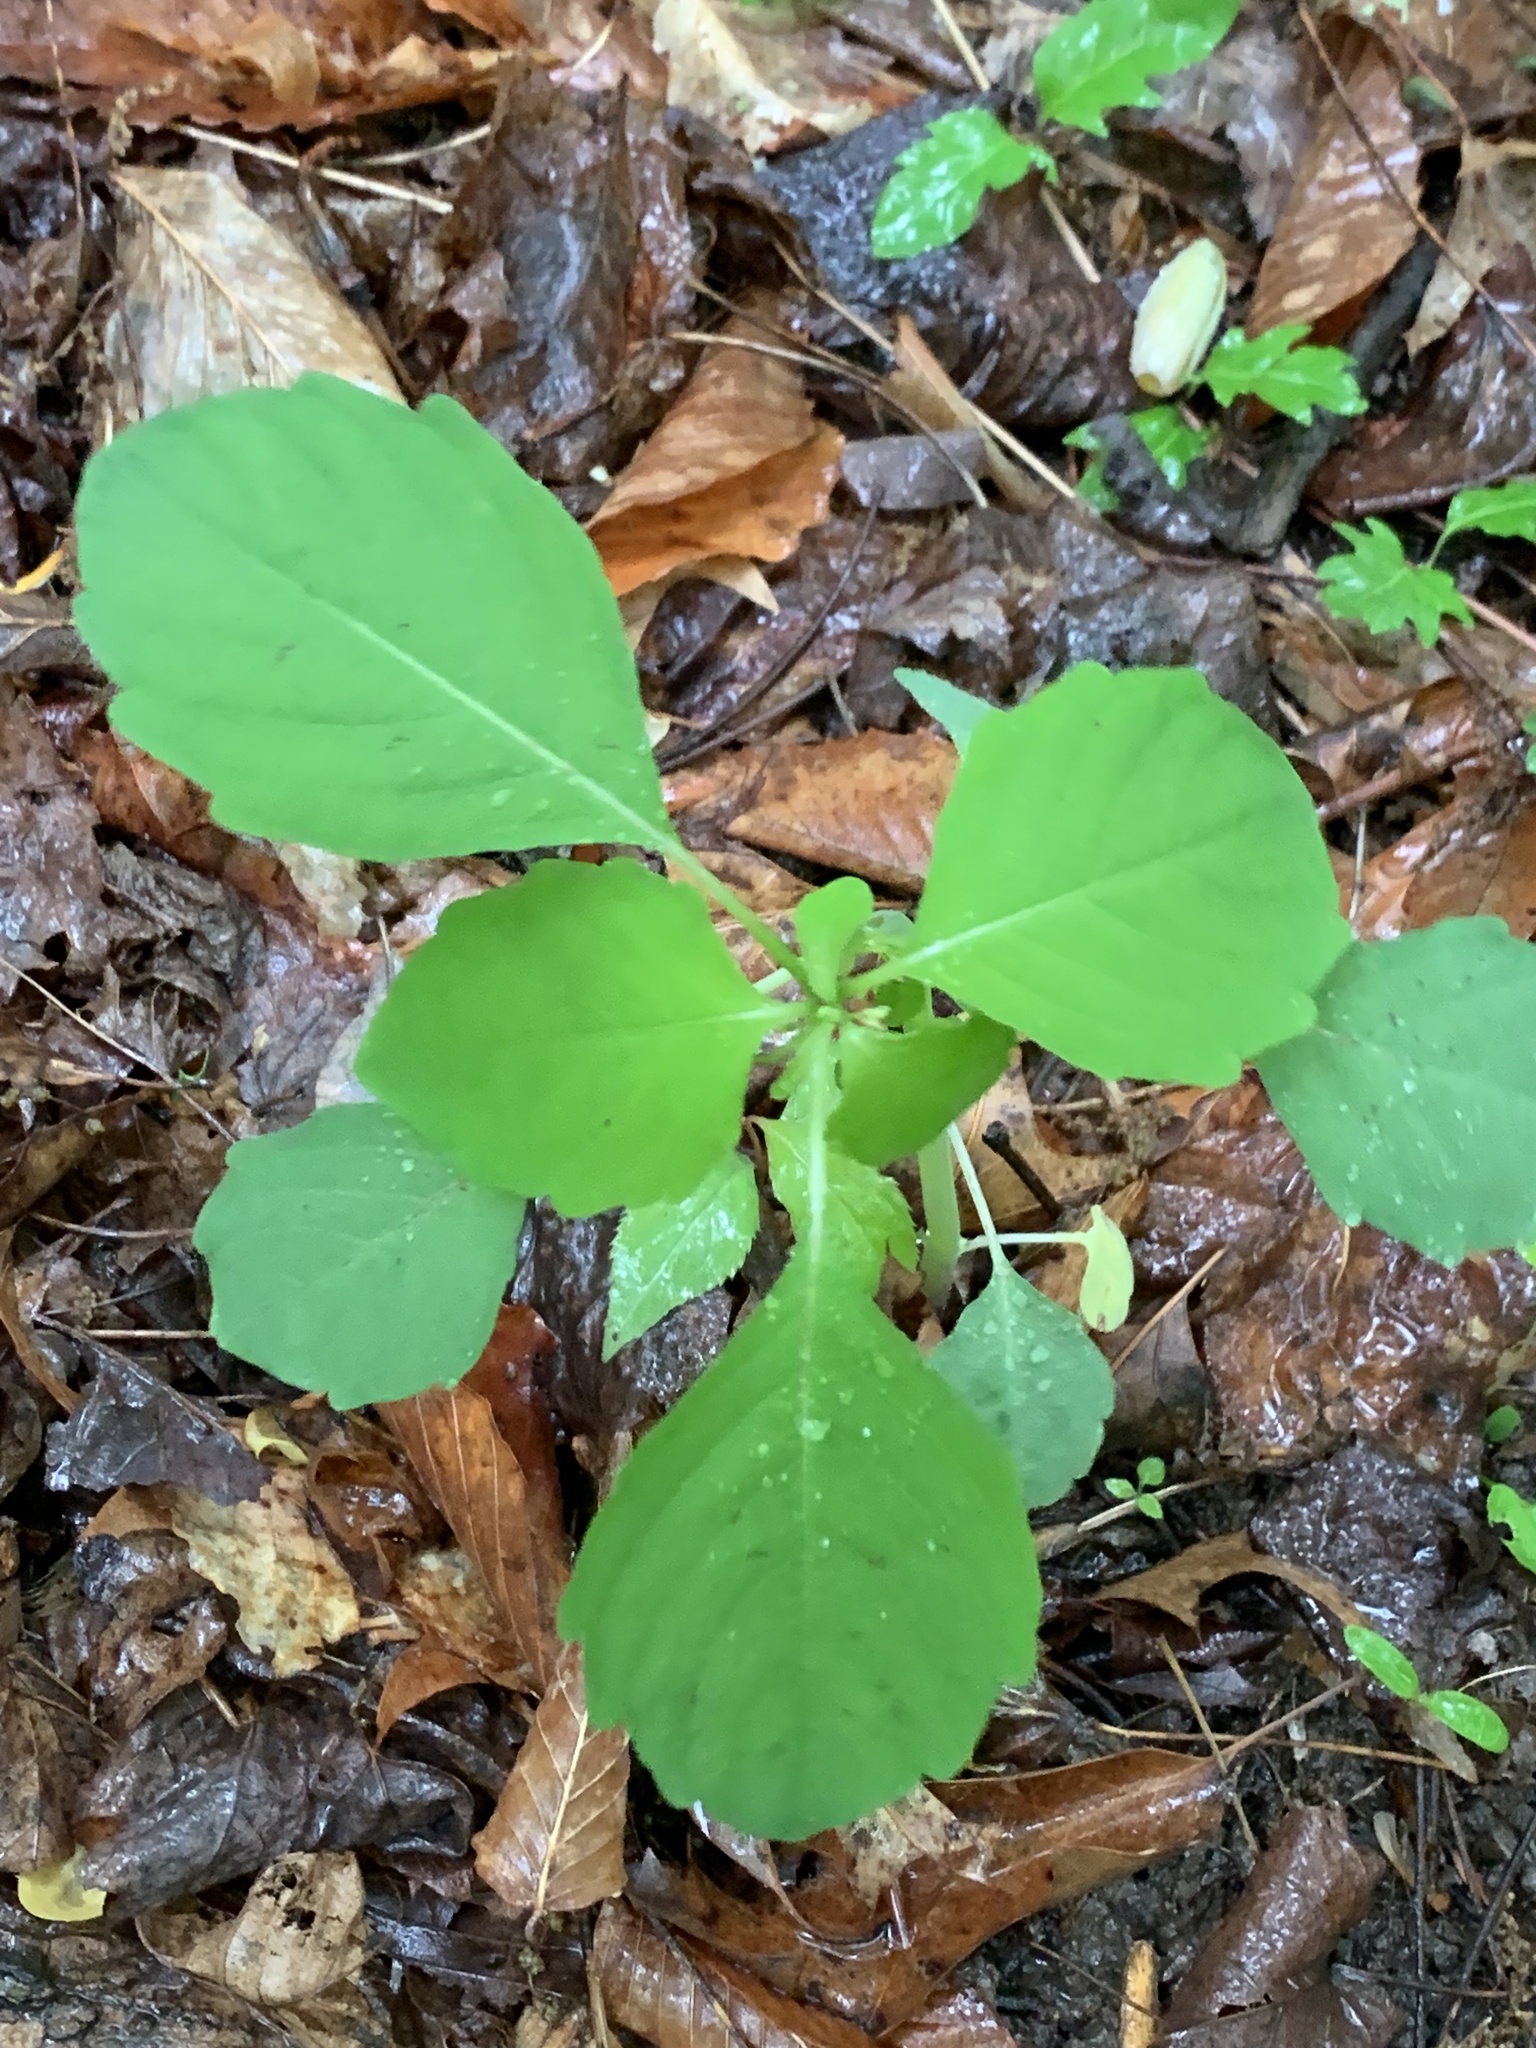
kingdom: Plantae
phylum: Tracheophyta
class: Magnoliopsida
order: Ericales
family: Balsaminaceae
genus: Impatiens
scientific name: Impatiens capensis
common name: Orange balsam
